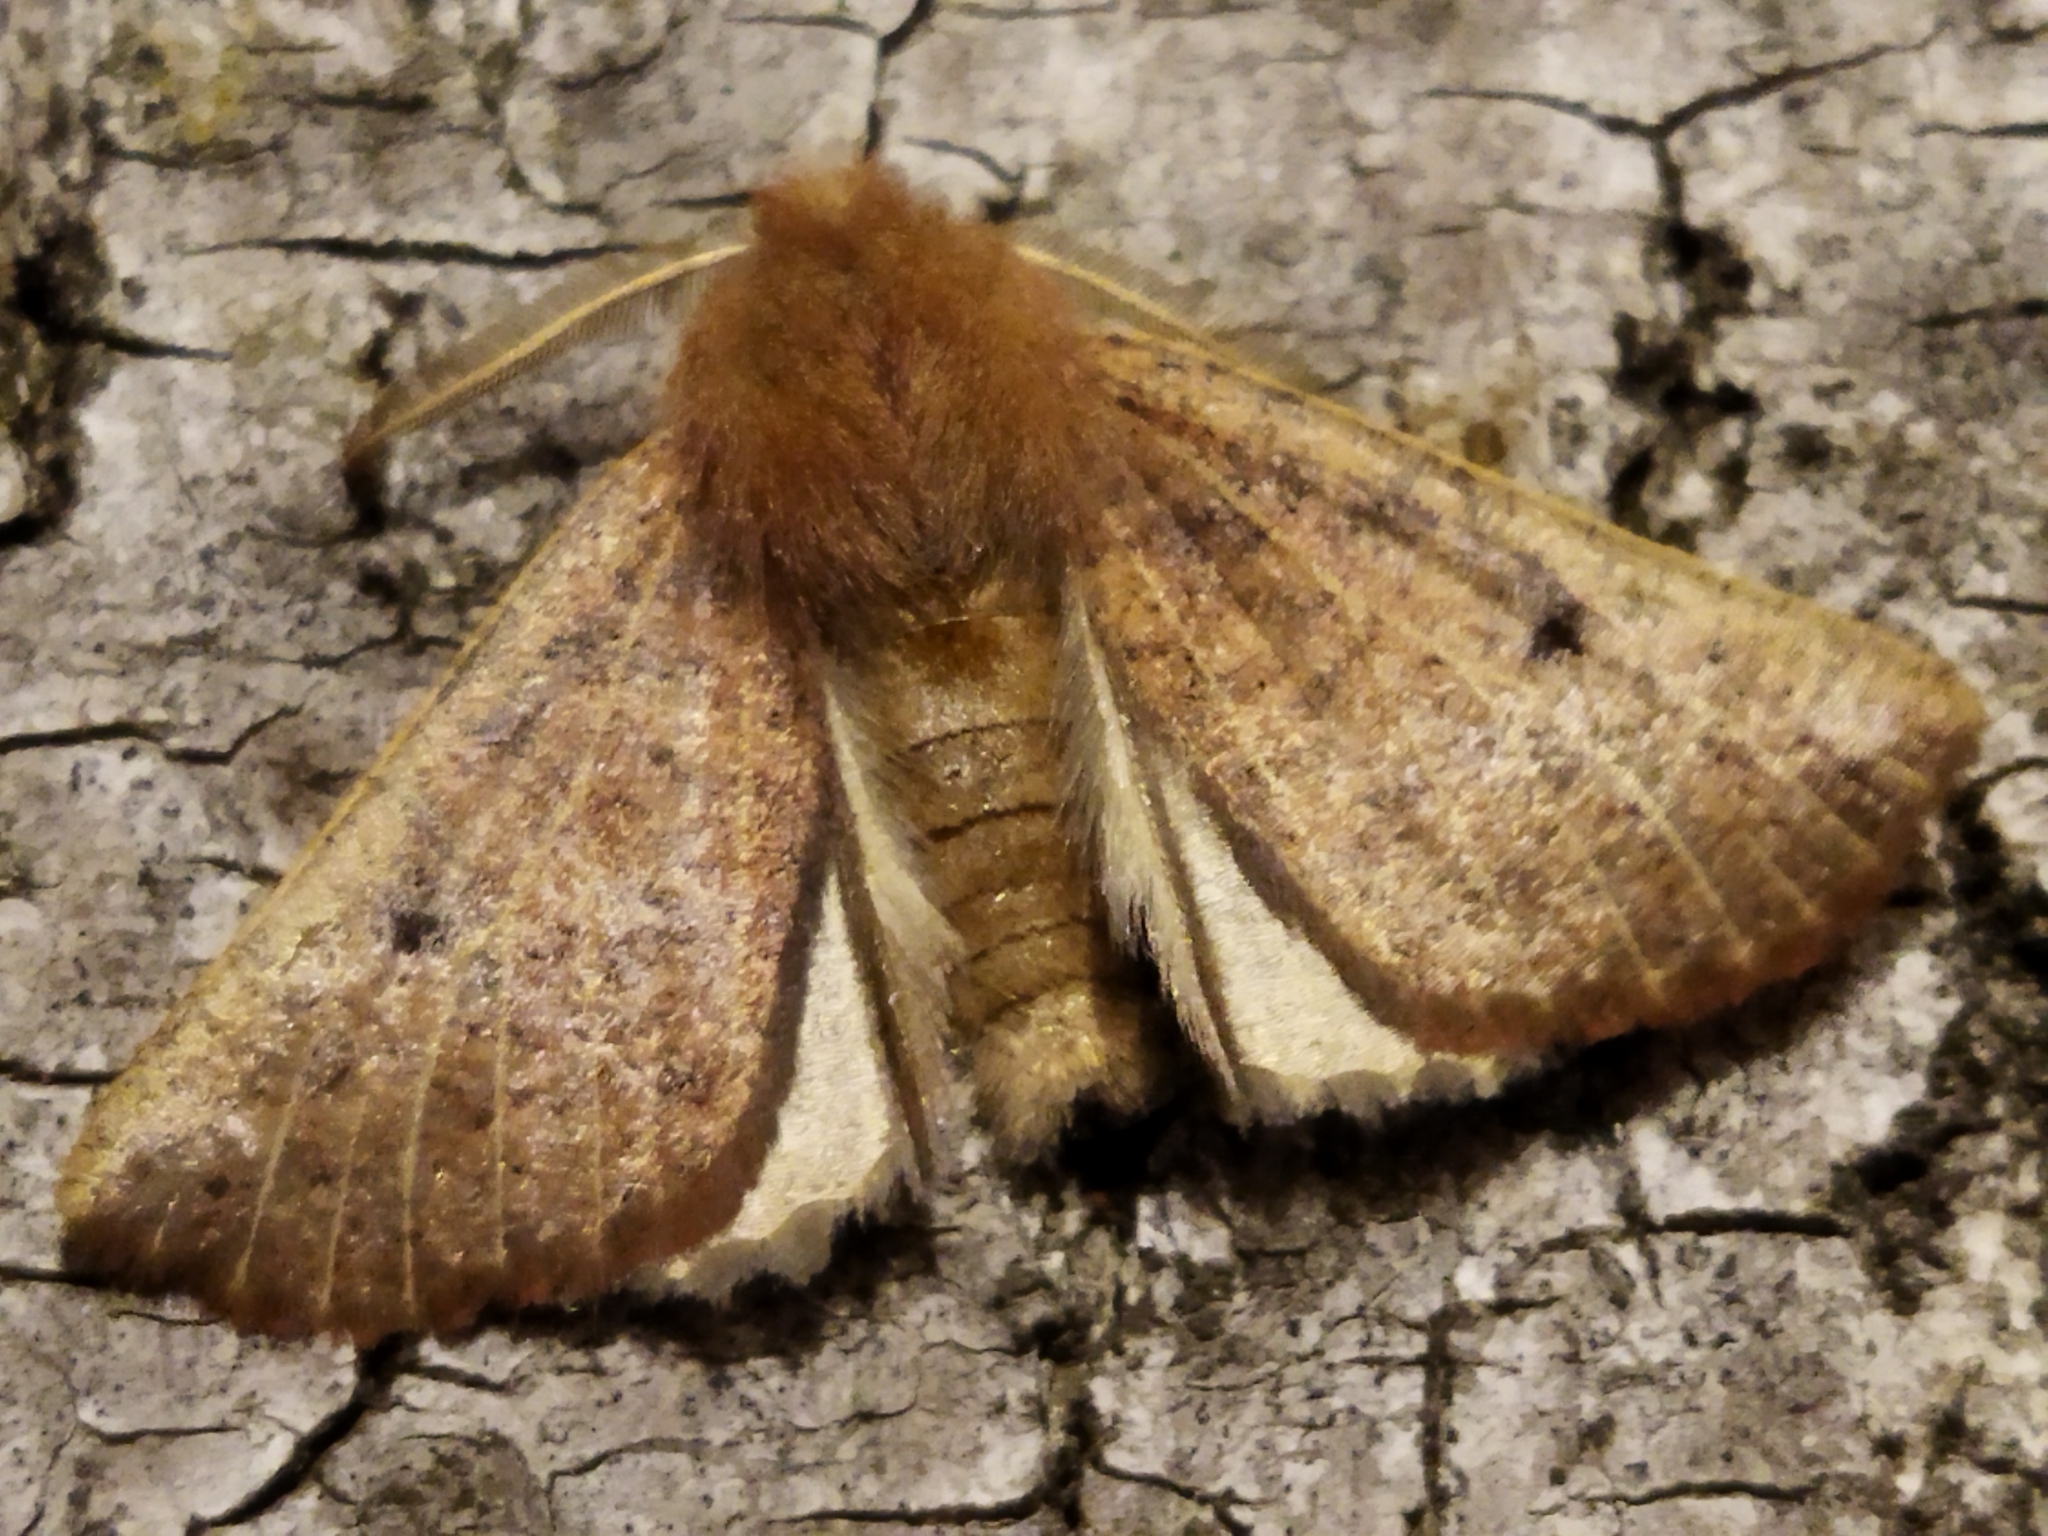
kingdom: Animalia
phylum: Arthropoda
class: Insecta
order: Lepidoptera
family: Geometridae
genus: Dasycorsa
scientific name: Dasycorsa modesta
